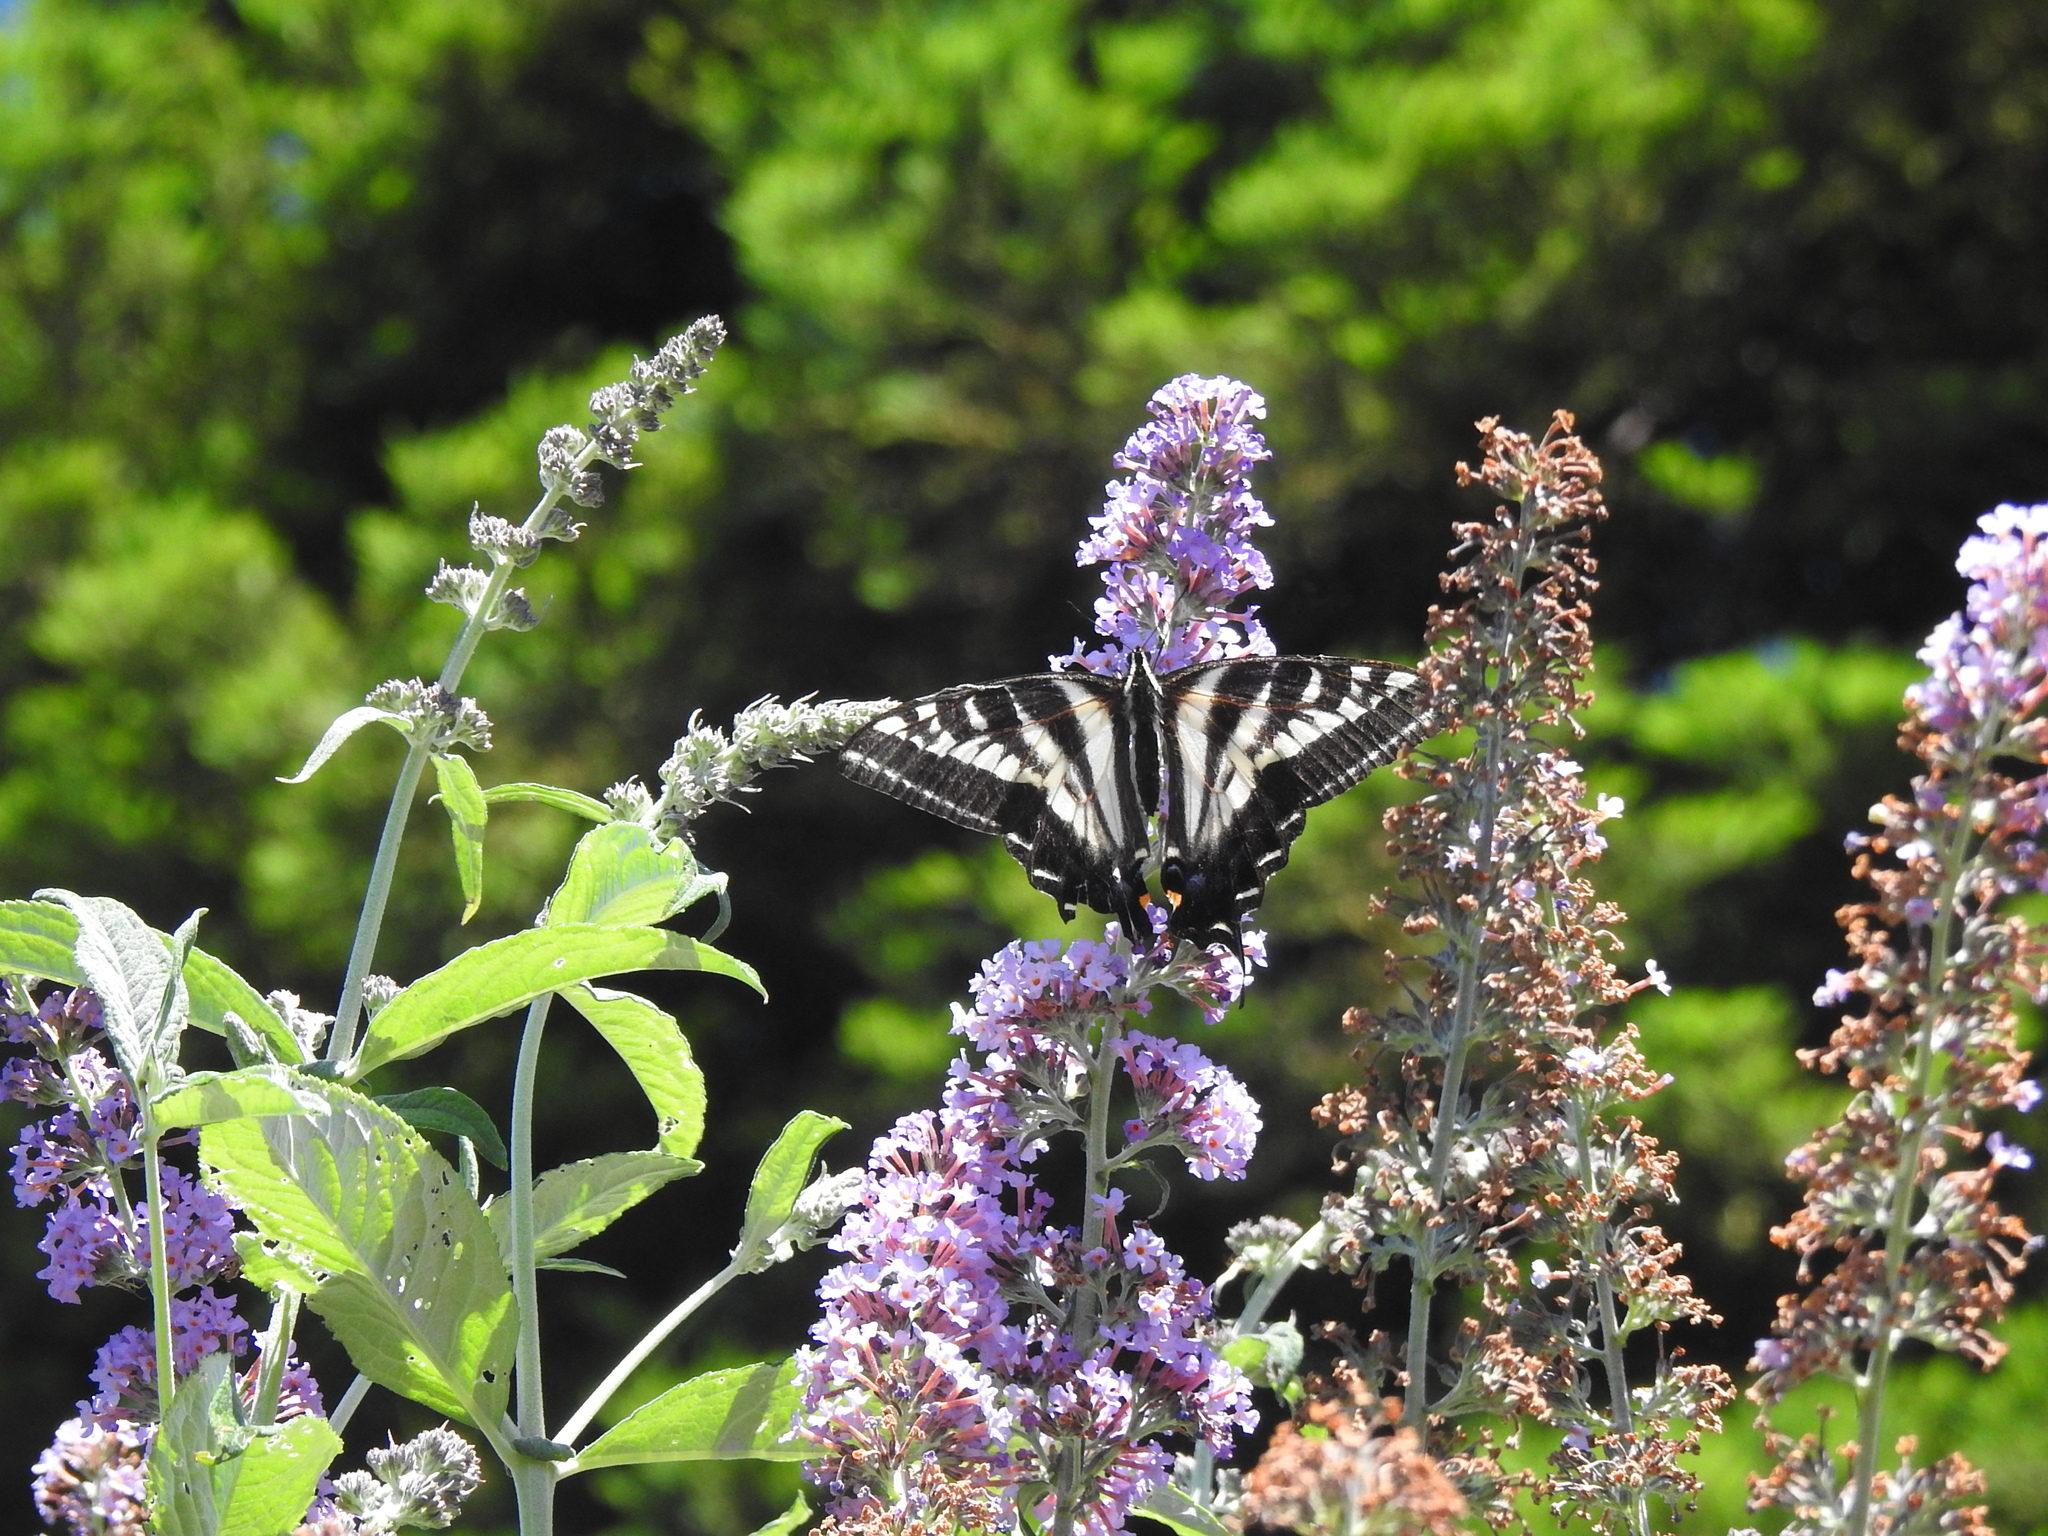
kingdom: Animalia
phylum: Arthropoda
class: Insecta
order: Lepidoptera
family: Papilionidae
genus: Papilio
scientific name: Papilio eurymedon
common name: Pale tiger swallowtail
